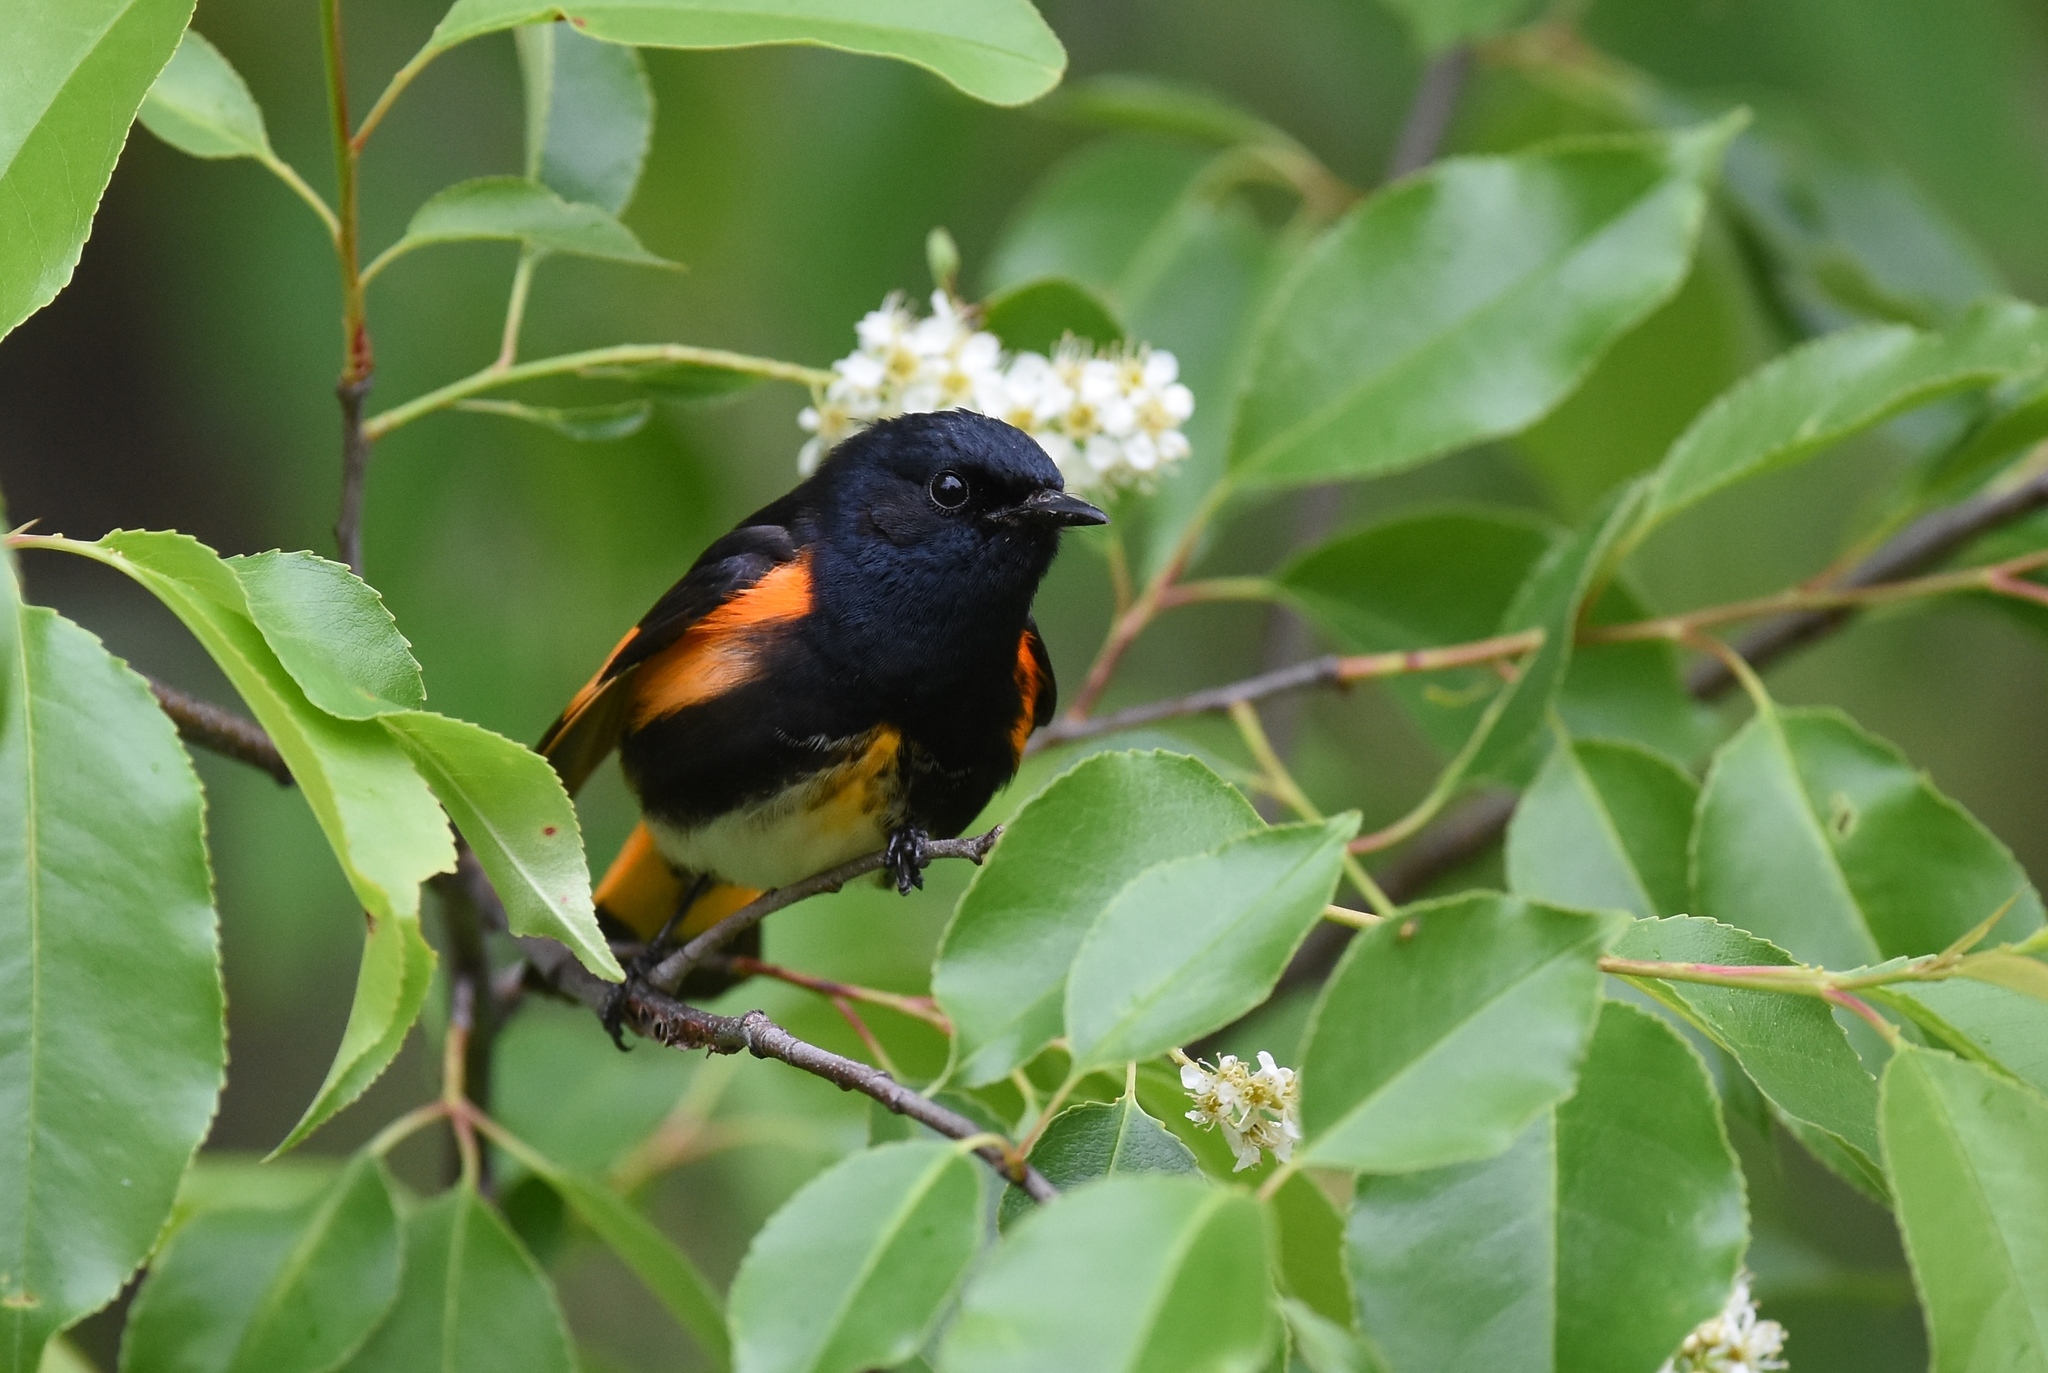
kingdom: Animalia
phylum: Chordata
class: Aves
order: Passeriformes
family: Parulidae
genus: Setophaga
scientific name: Setophaga ruticilla
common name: American redstart
